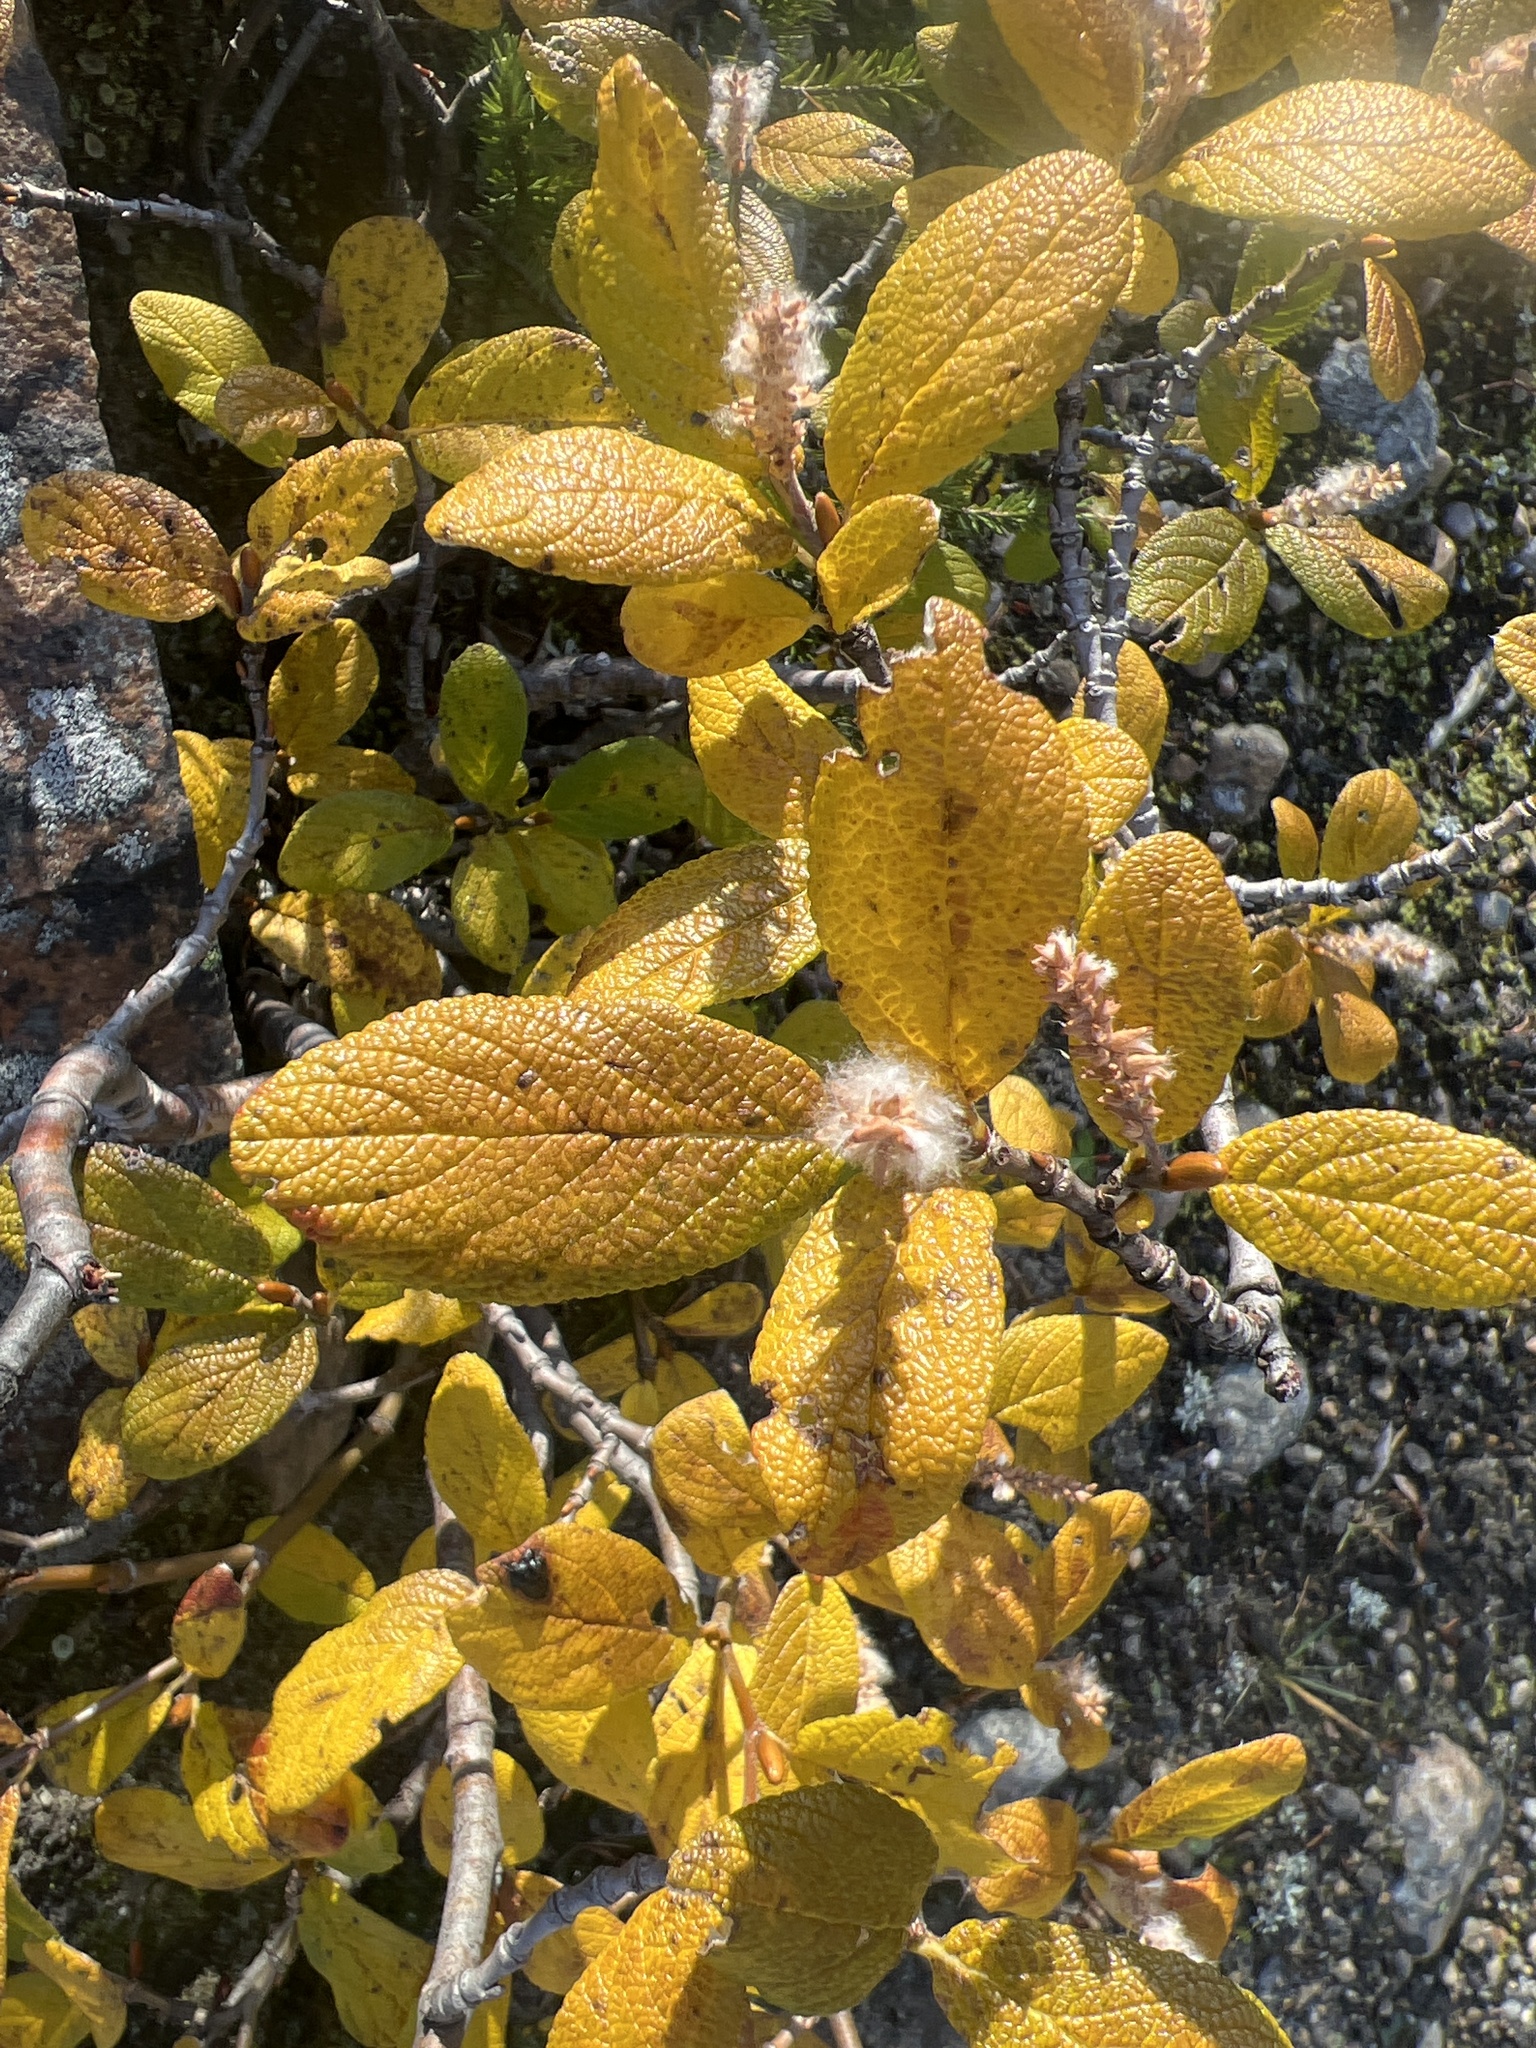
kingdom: Plantae
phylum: Tracheophyta
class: Magnoliopsida
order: Malpighiales
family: Salicaceae
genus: Salix
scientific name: Salix vestita
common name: Hairy willow
